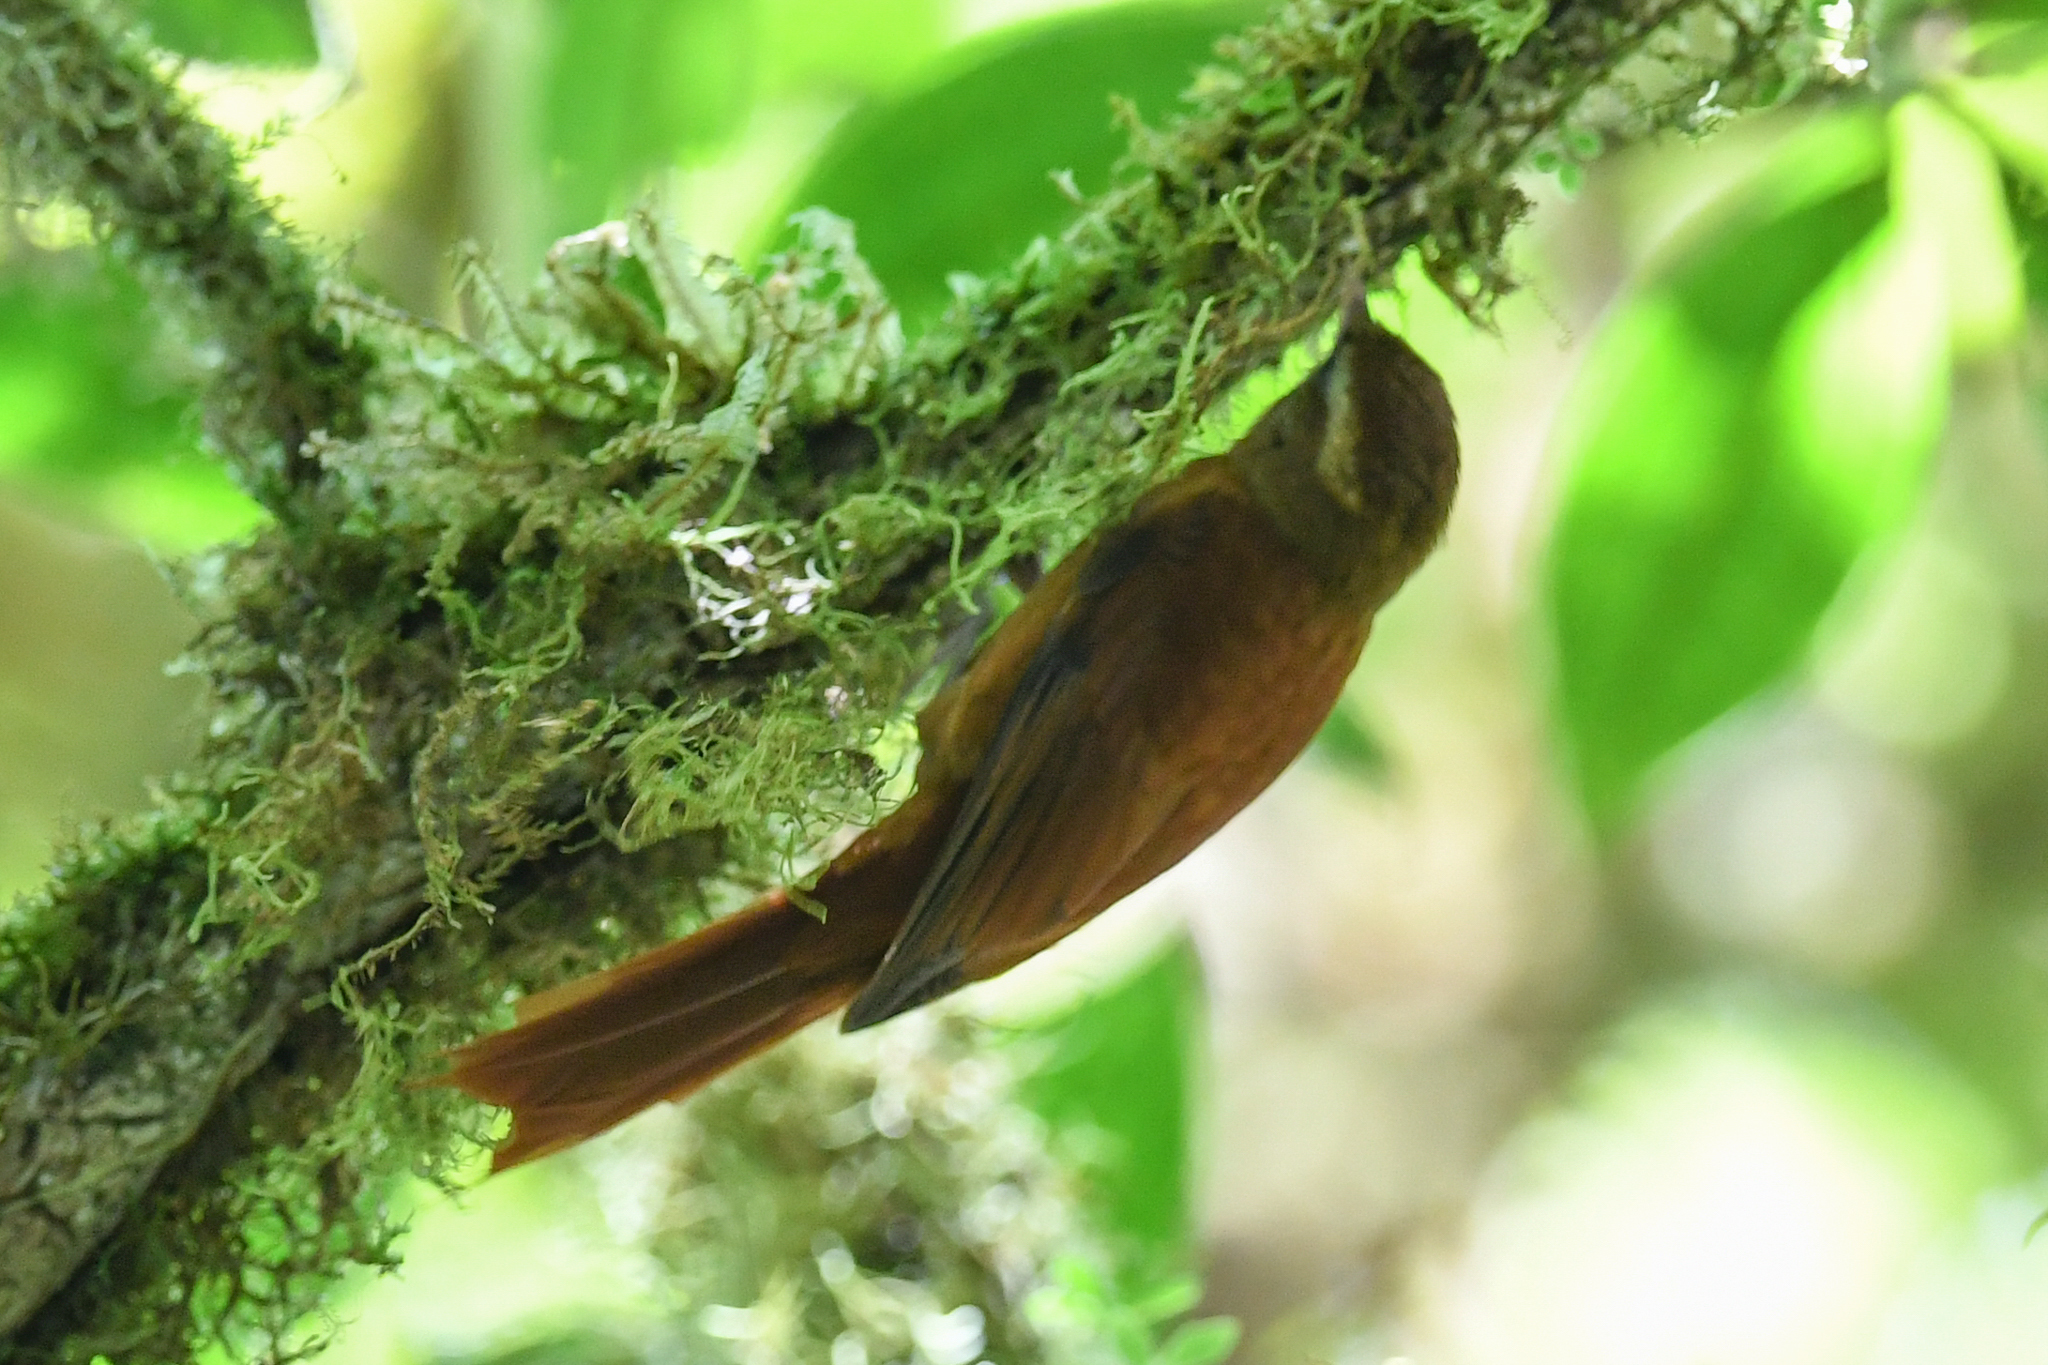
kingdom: Animalia
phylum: Chordata
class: Aves
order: Passeriformes
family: Furnariidae
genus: Margarornis
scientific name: Margarornis rubiginosus
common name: Ruddy treerunner
